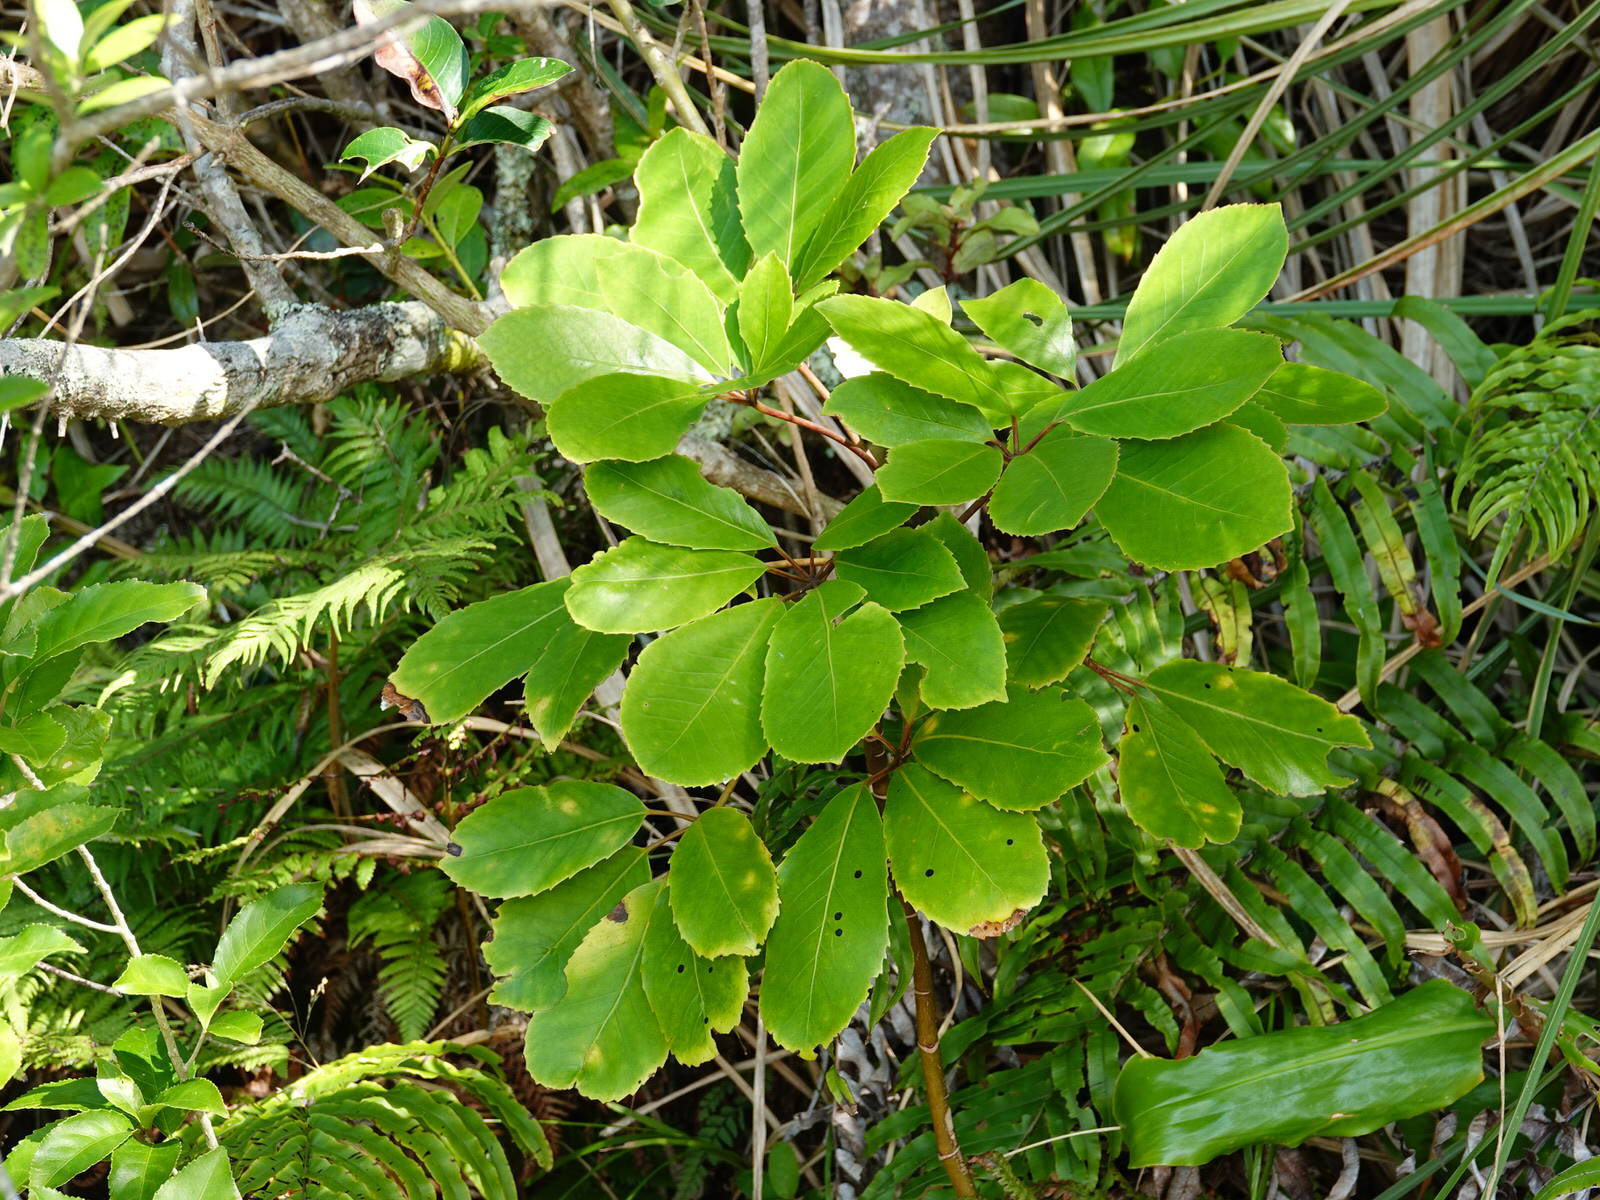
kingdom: Fungi
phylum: Ascomycota
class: Dothideomycetes
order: Asterinales
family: Asterinaceae
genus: Placosoma
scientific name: Placosoma nothopanacis
